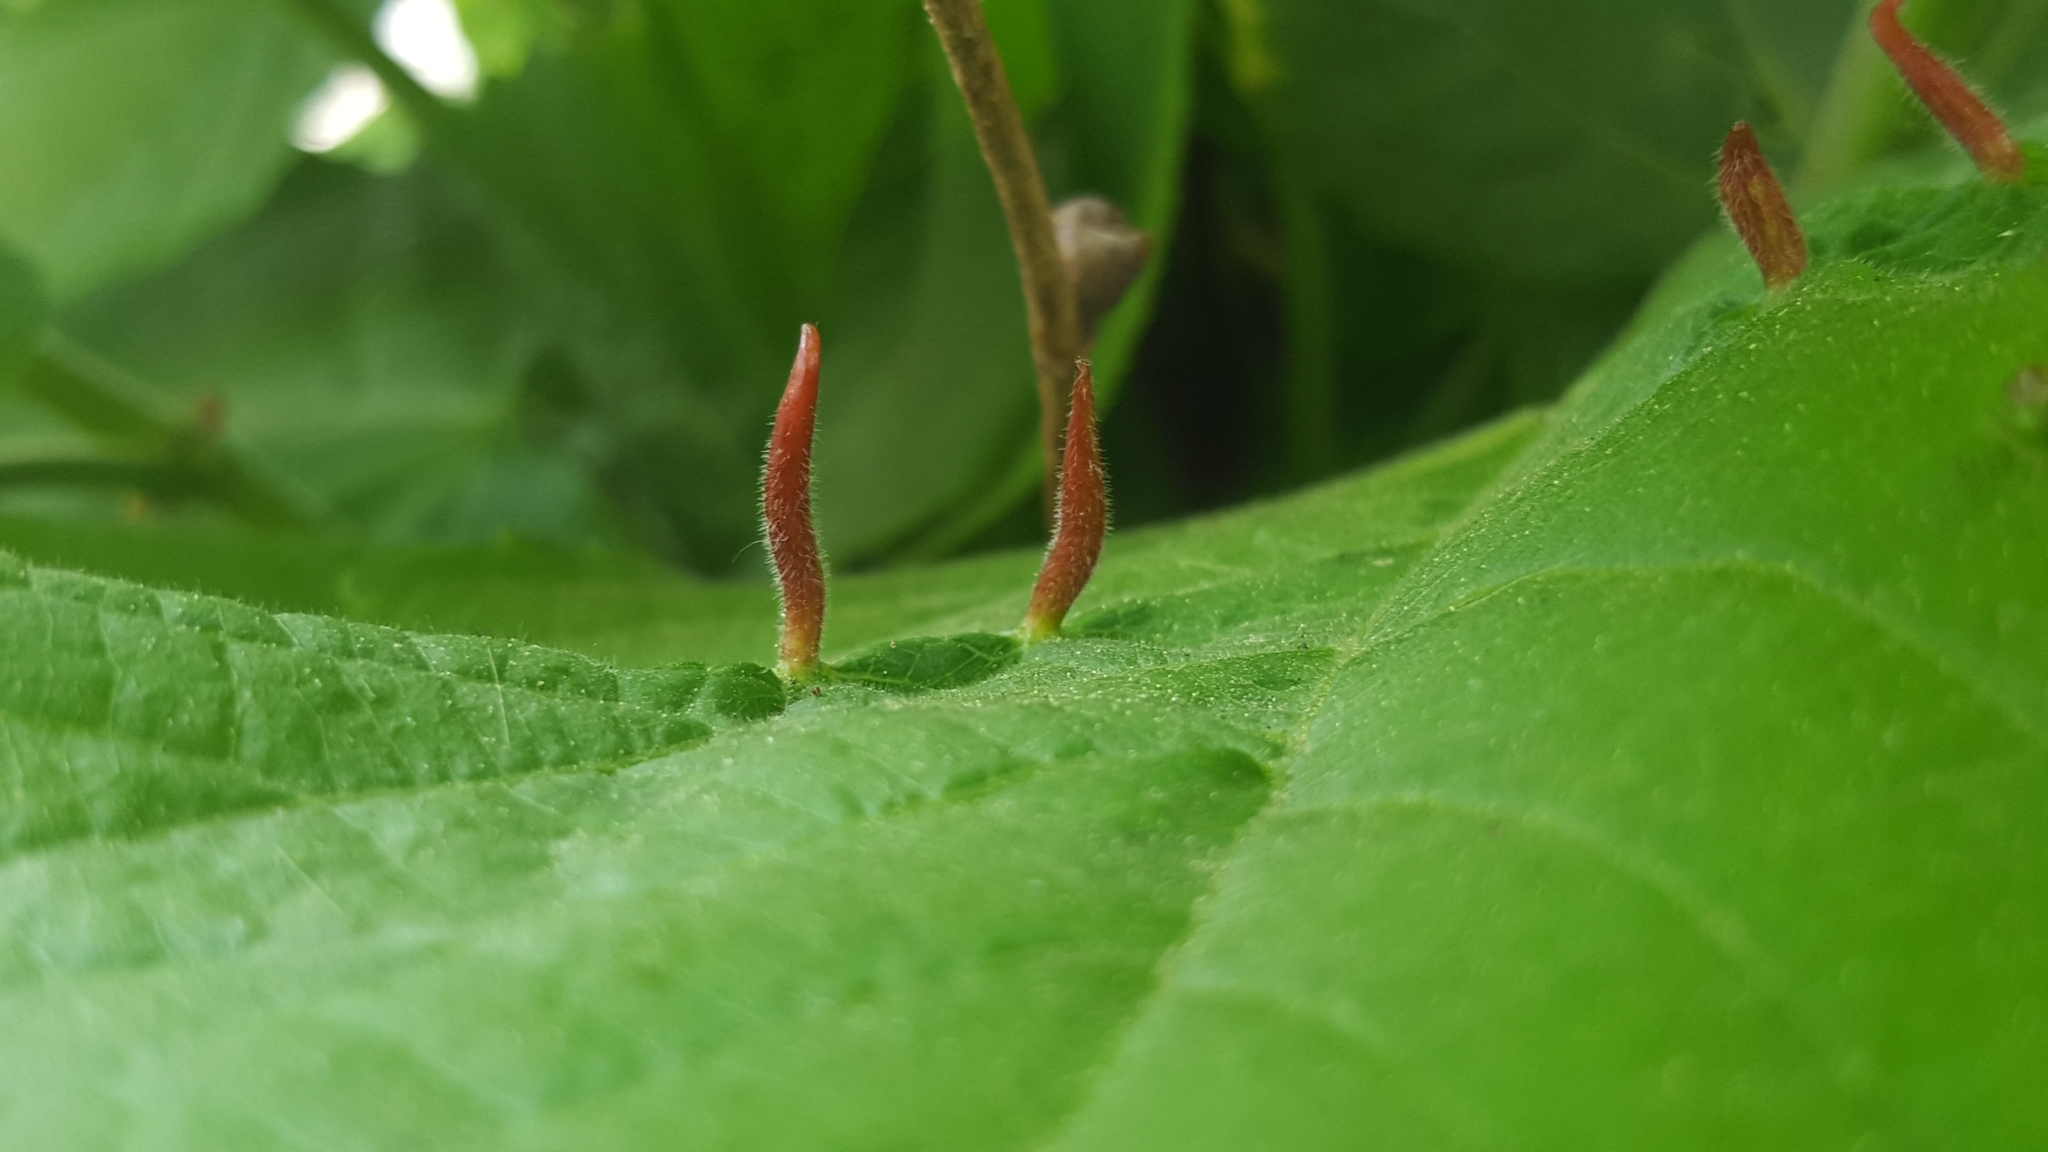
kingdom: Animalia
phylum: Arthropoda
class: Arachnida
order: Trombidiformes
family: Eriophyidae
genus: Eriophyes
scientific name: Eriophyes tiliae
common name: Red nail gall mite
